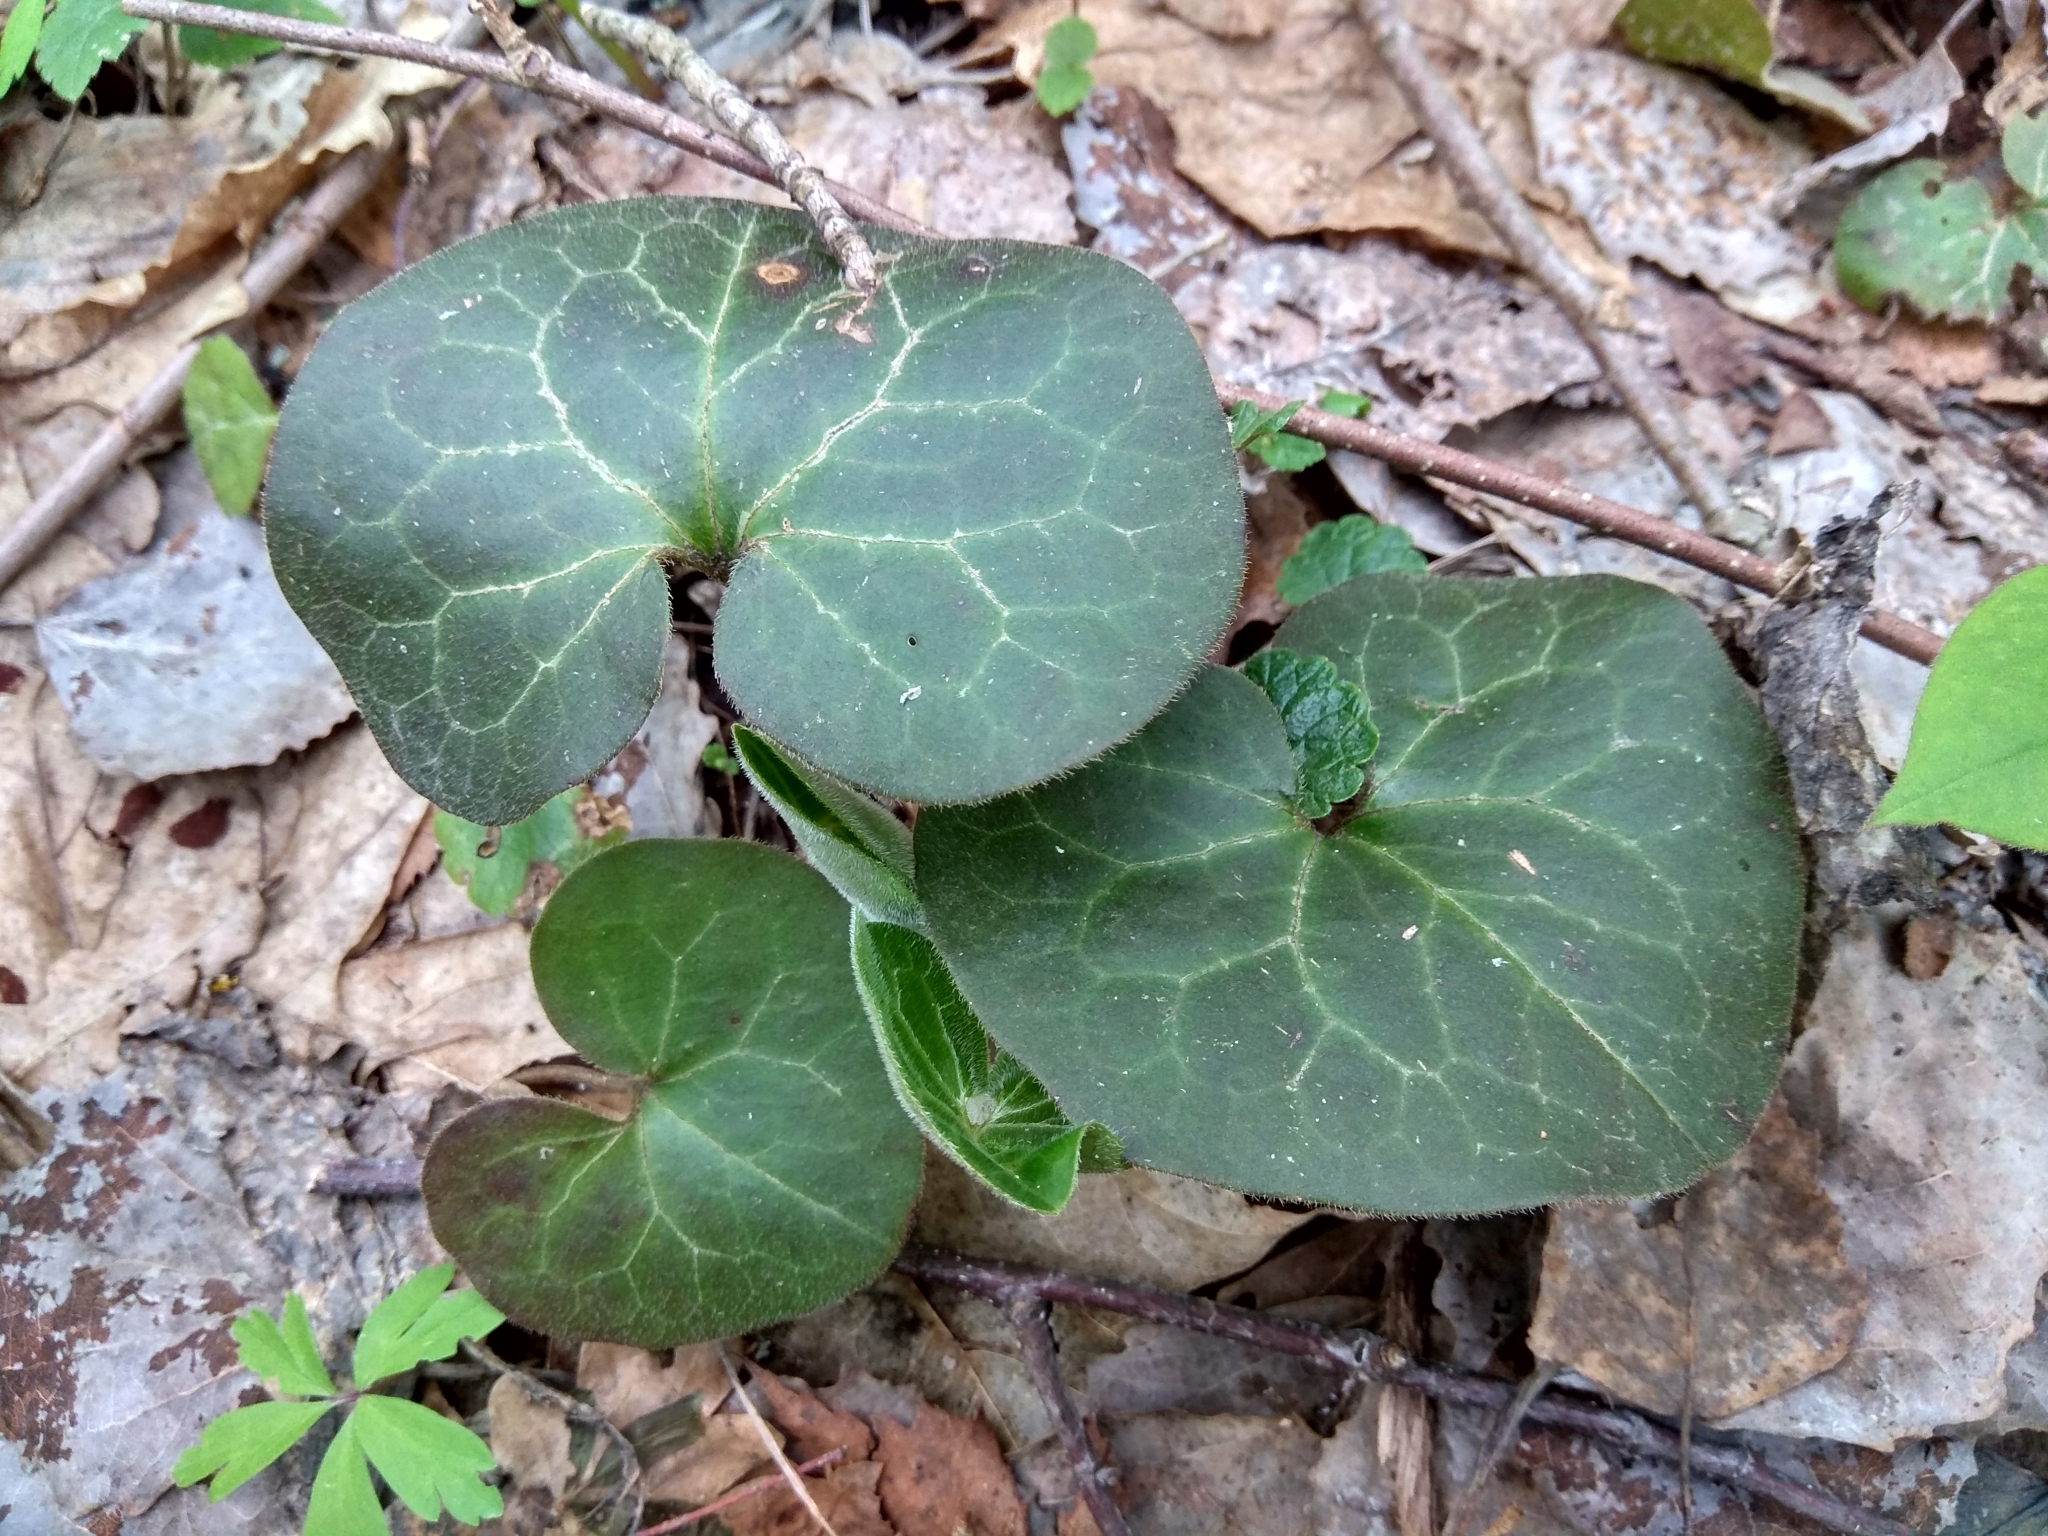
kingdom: Plantae
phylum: Tracheophyta
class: Magnoliopsida
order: Piperales
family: Aristolochiaceae
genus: Asarum
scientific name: Asarum europaeum
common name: Asarabacca
